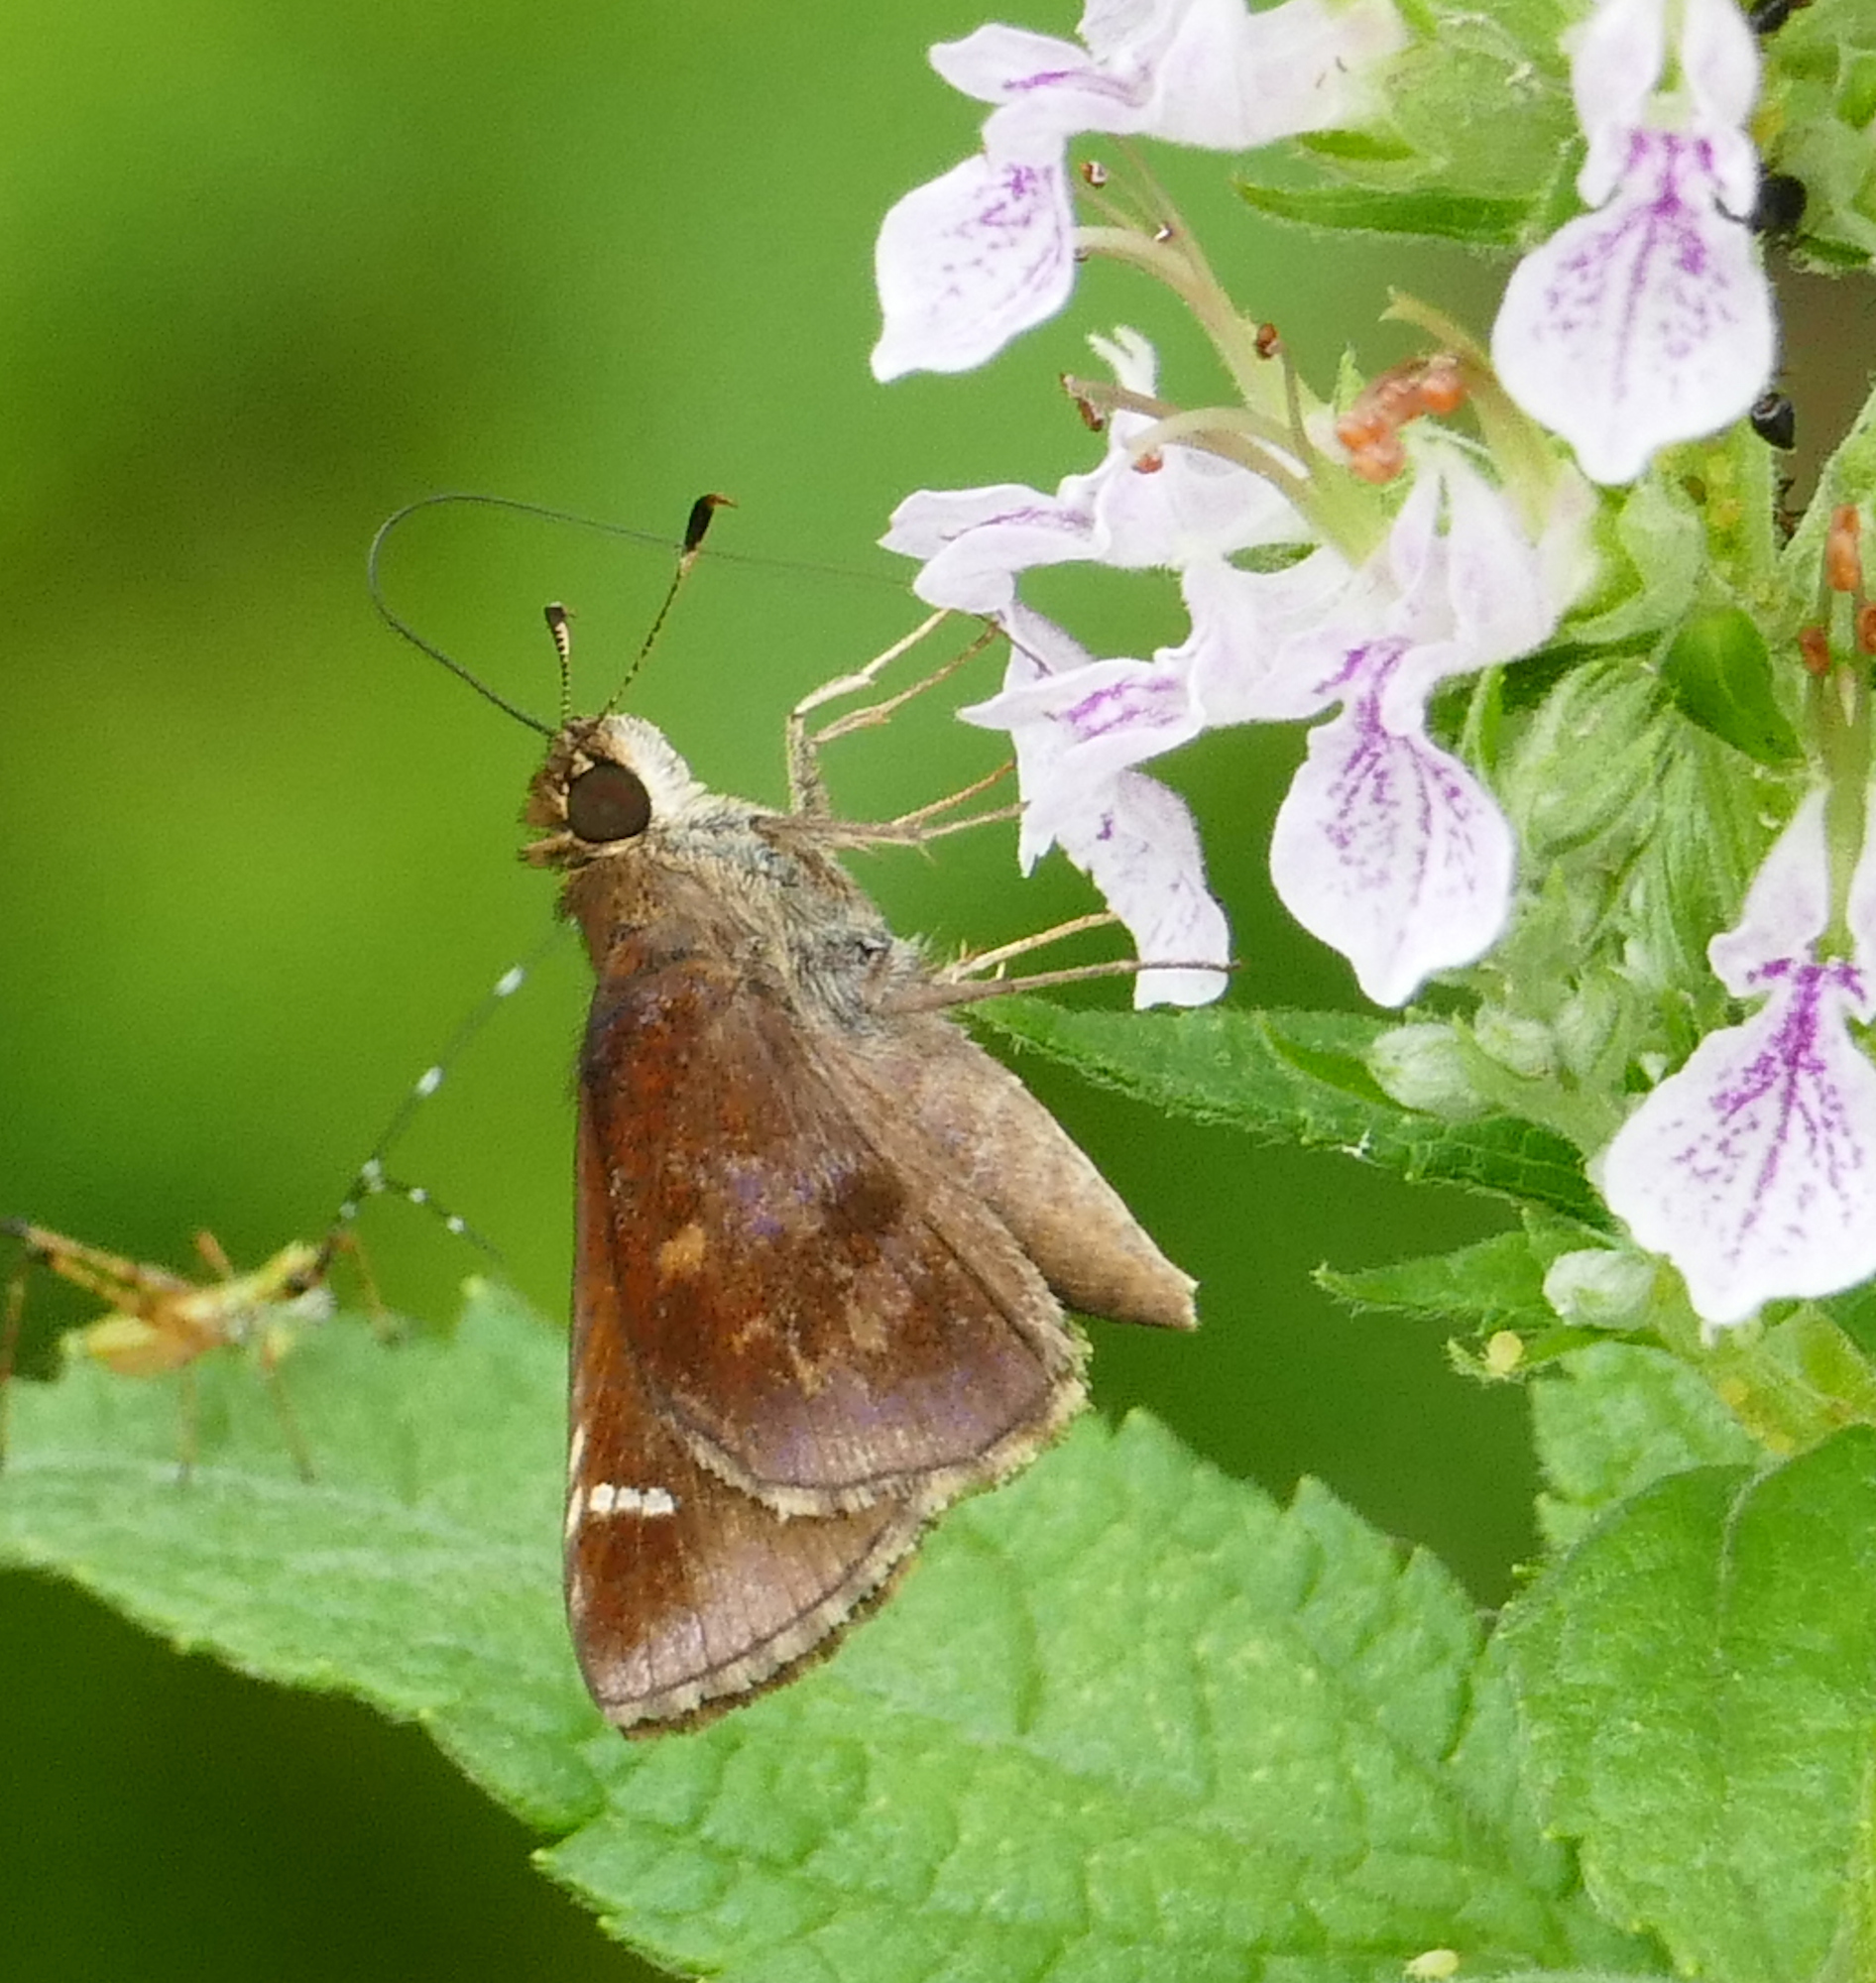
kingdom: Animalia
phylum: Arthropoda
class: Insecta
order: Lepidoptera
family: Hesperiidae
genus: Lerema
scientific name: Lerema accius
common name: Clouded skipper
